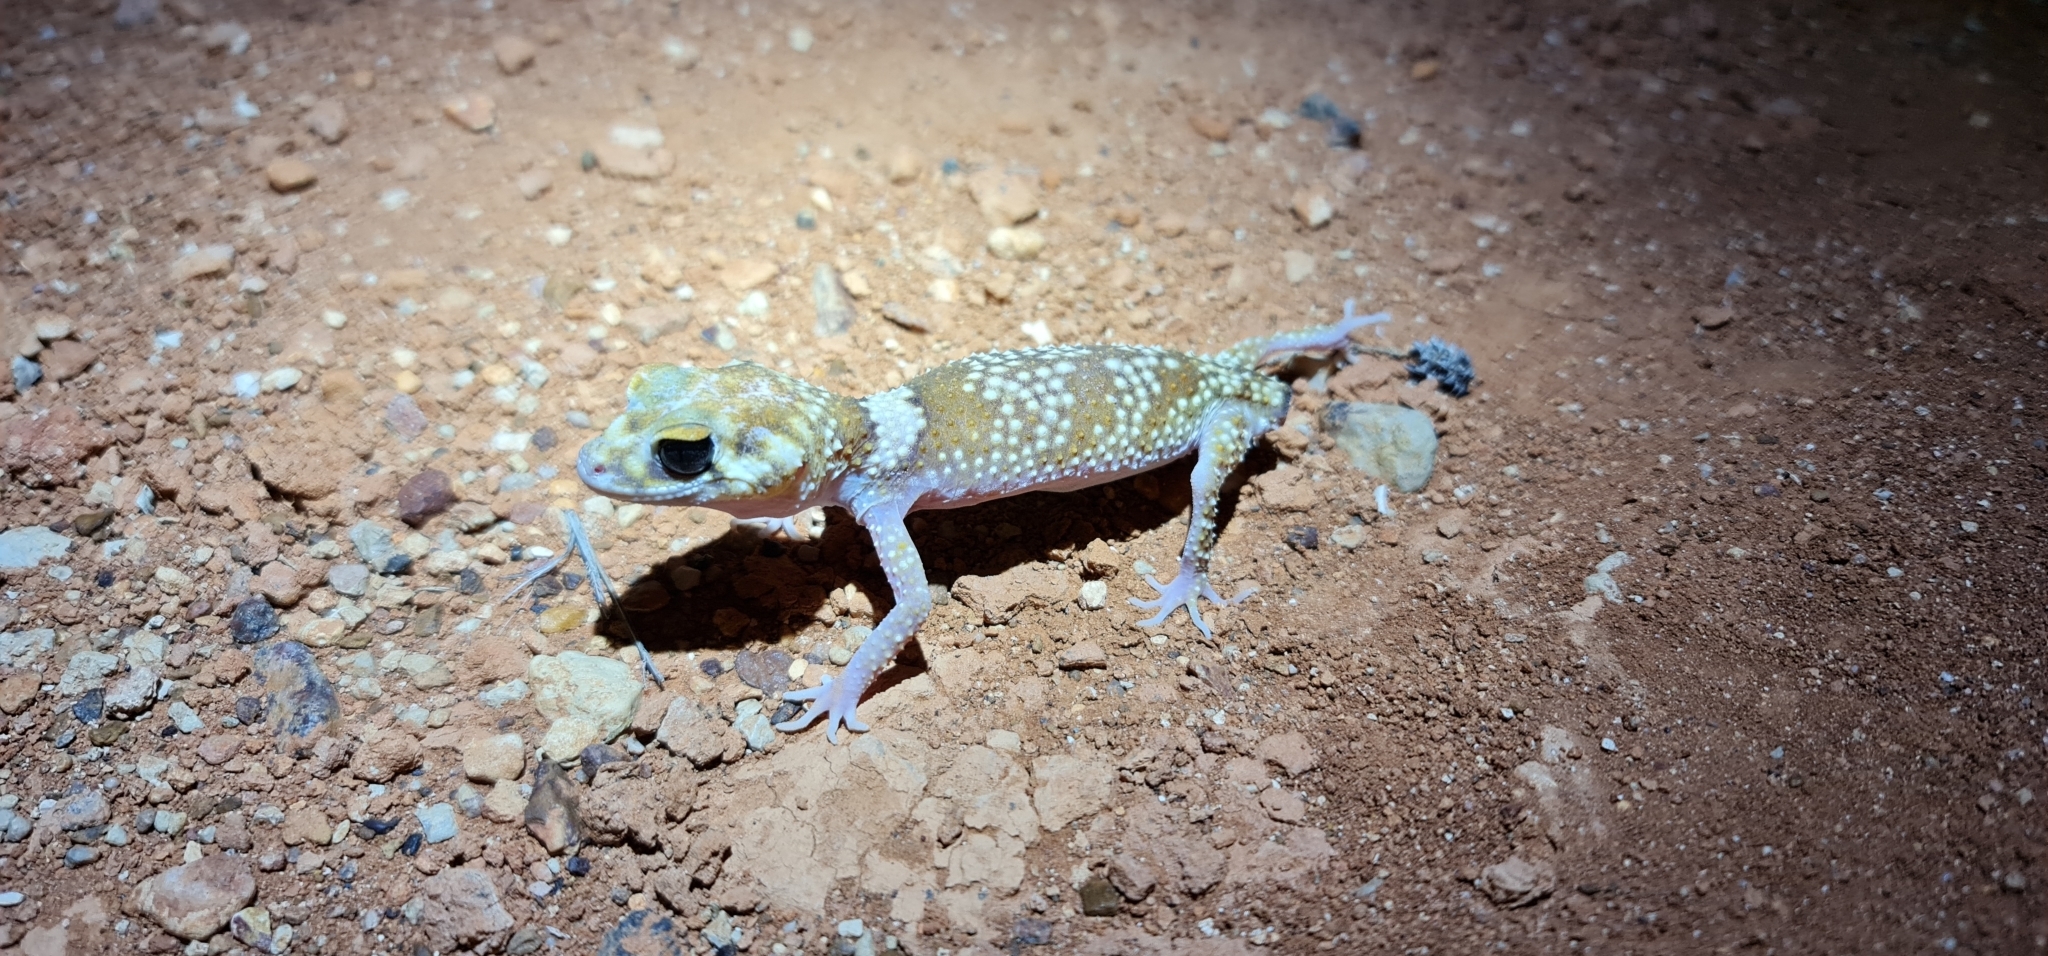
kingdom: Animalia
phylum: Chordata
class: Squamata
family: Carphodactylidae
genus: Underwoodisaurus
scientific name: Underwoodisaurus milii
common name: Barking gecko
